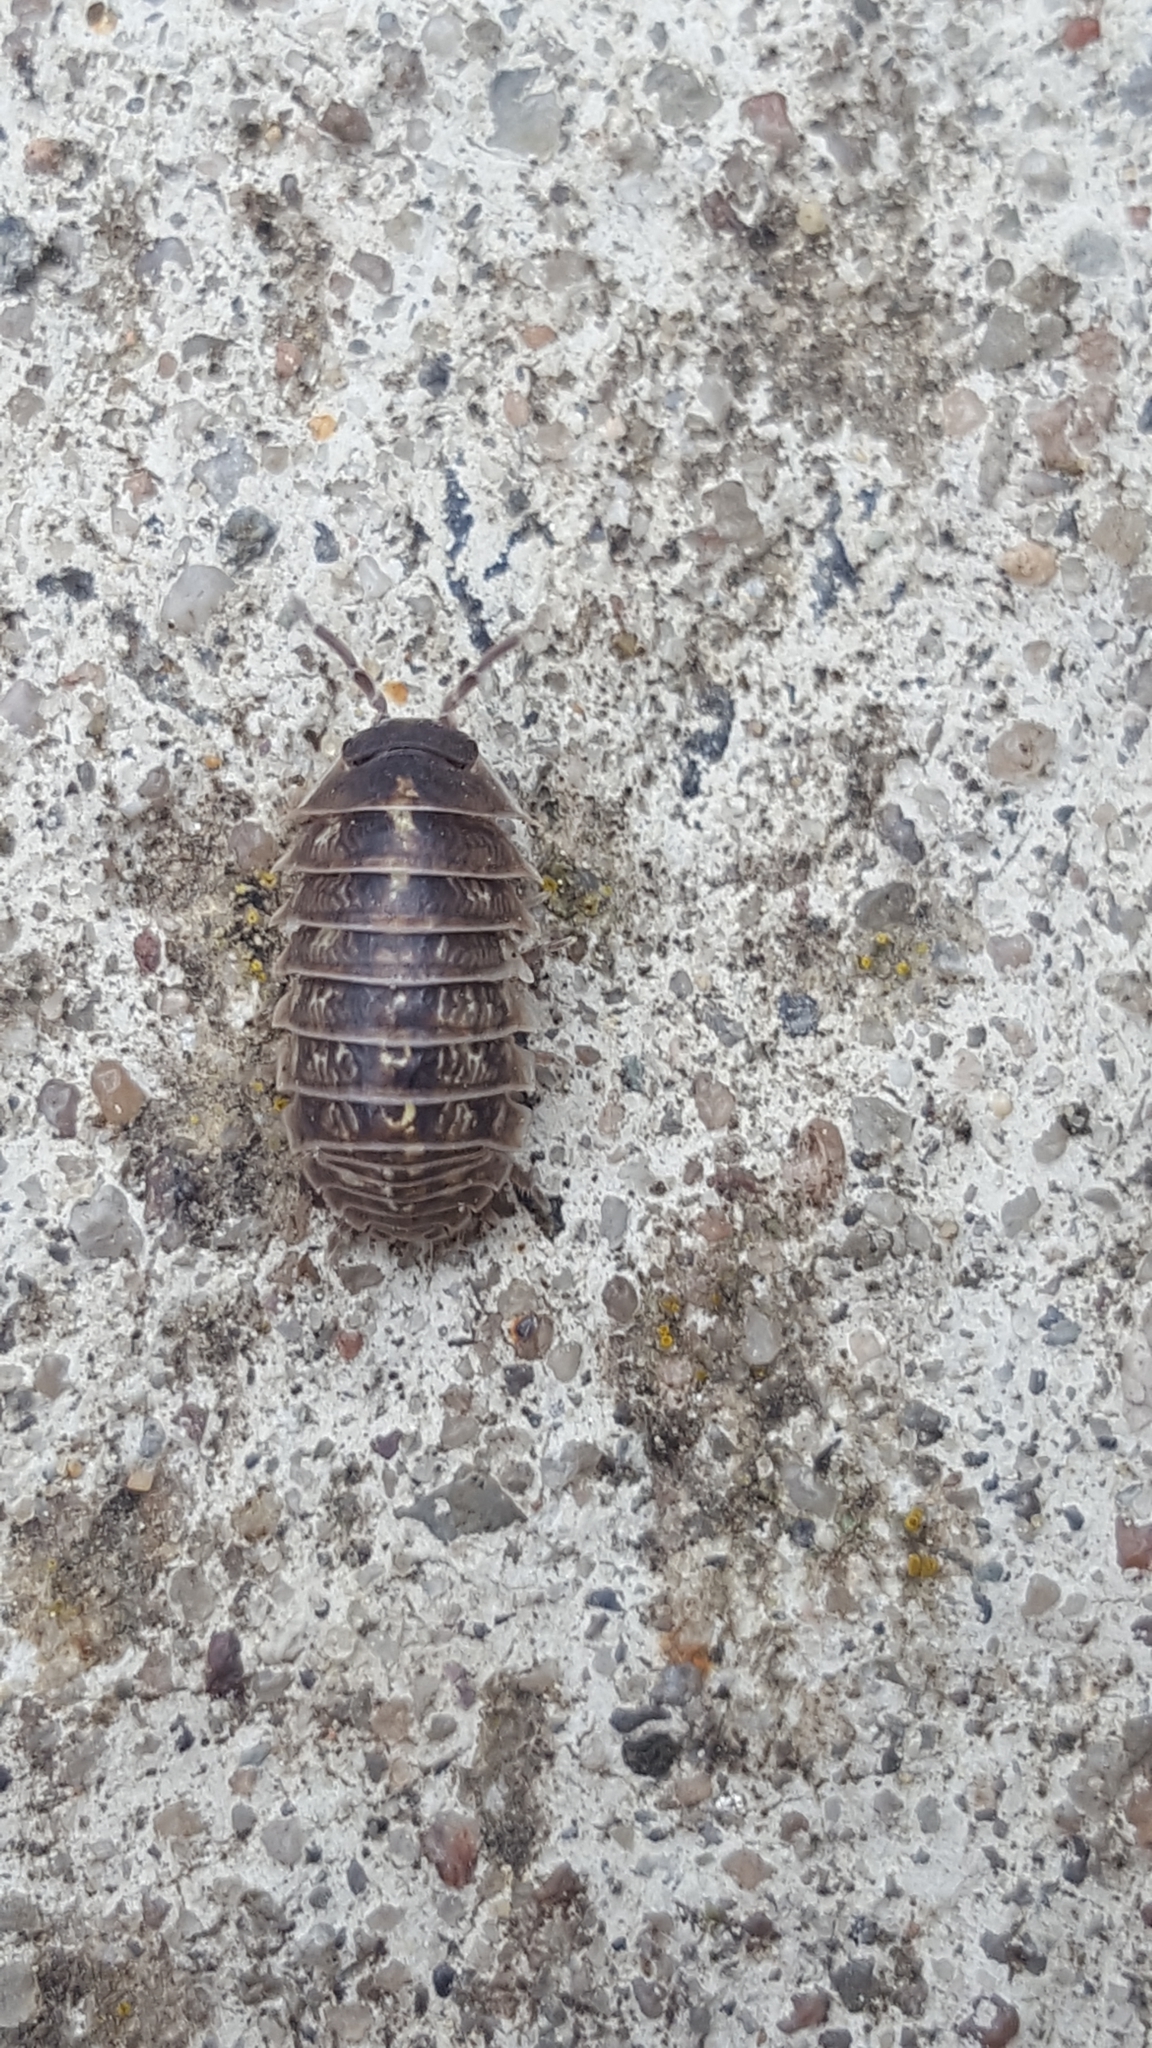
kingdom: Animalia
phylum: Arthropoda
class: Malacostraca
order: Isopoda
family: Armadillidiidae
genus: Armadillidium
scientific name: Armadillidium vulgare
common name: Common pill woodlouse
